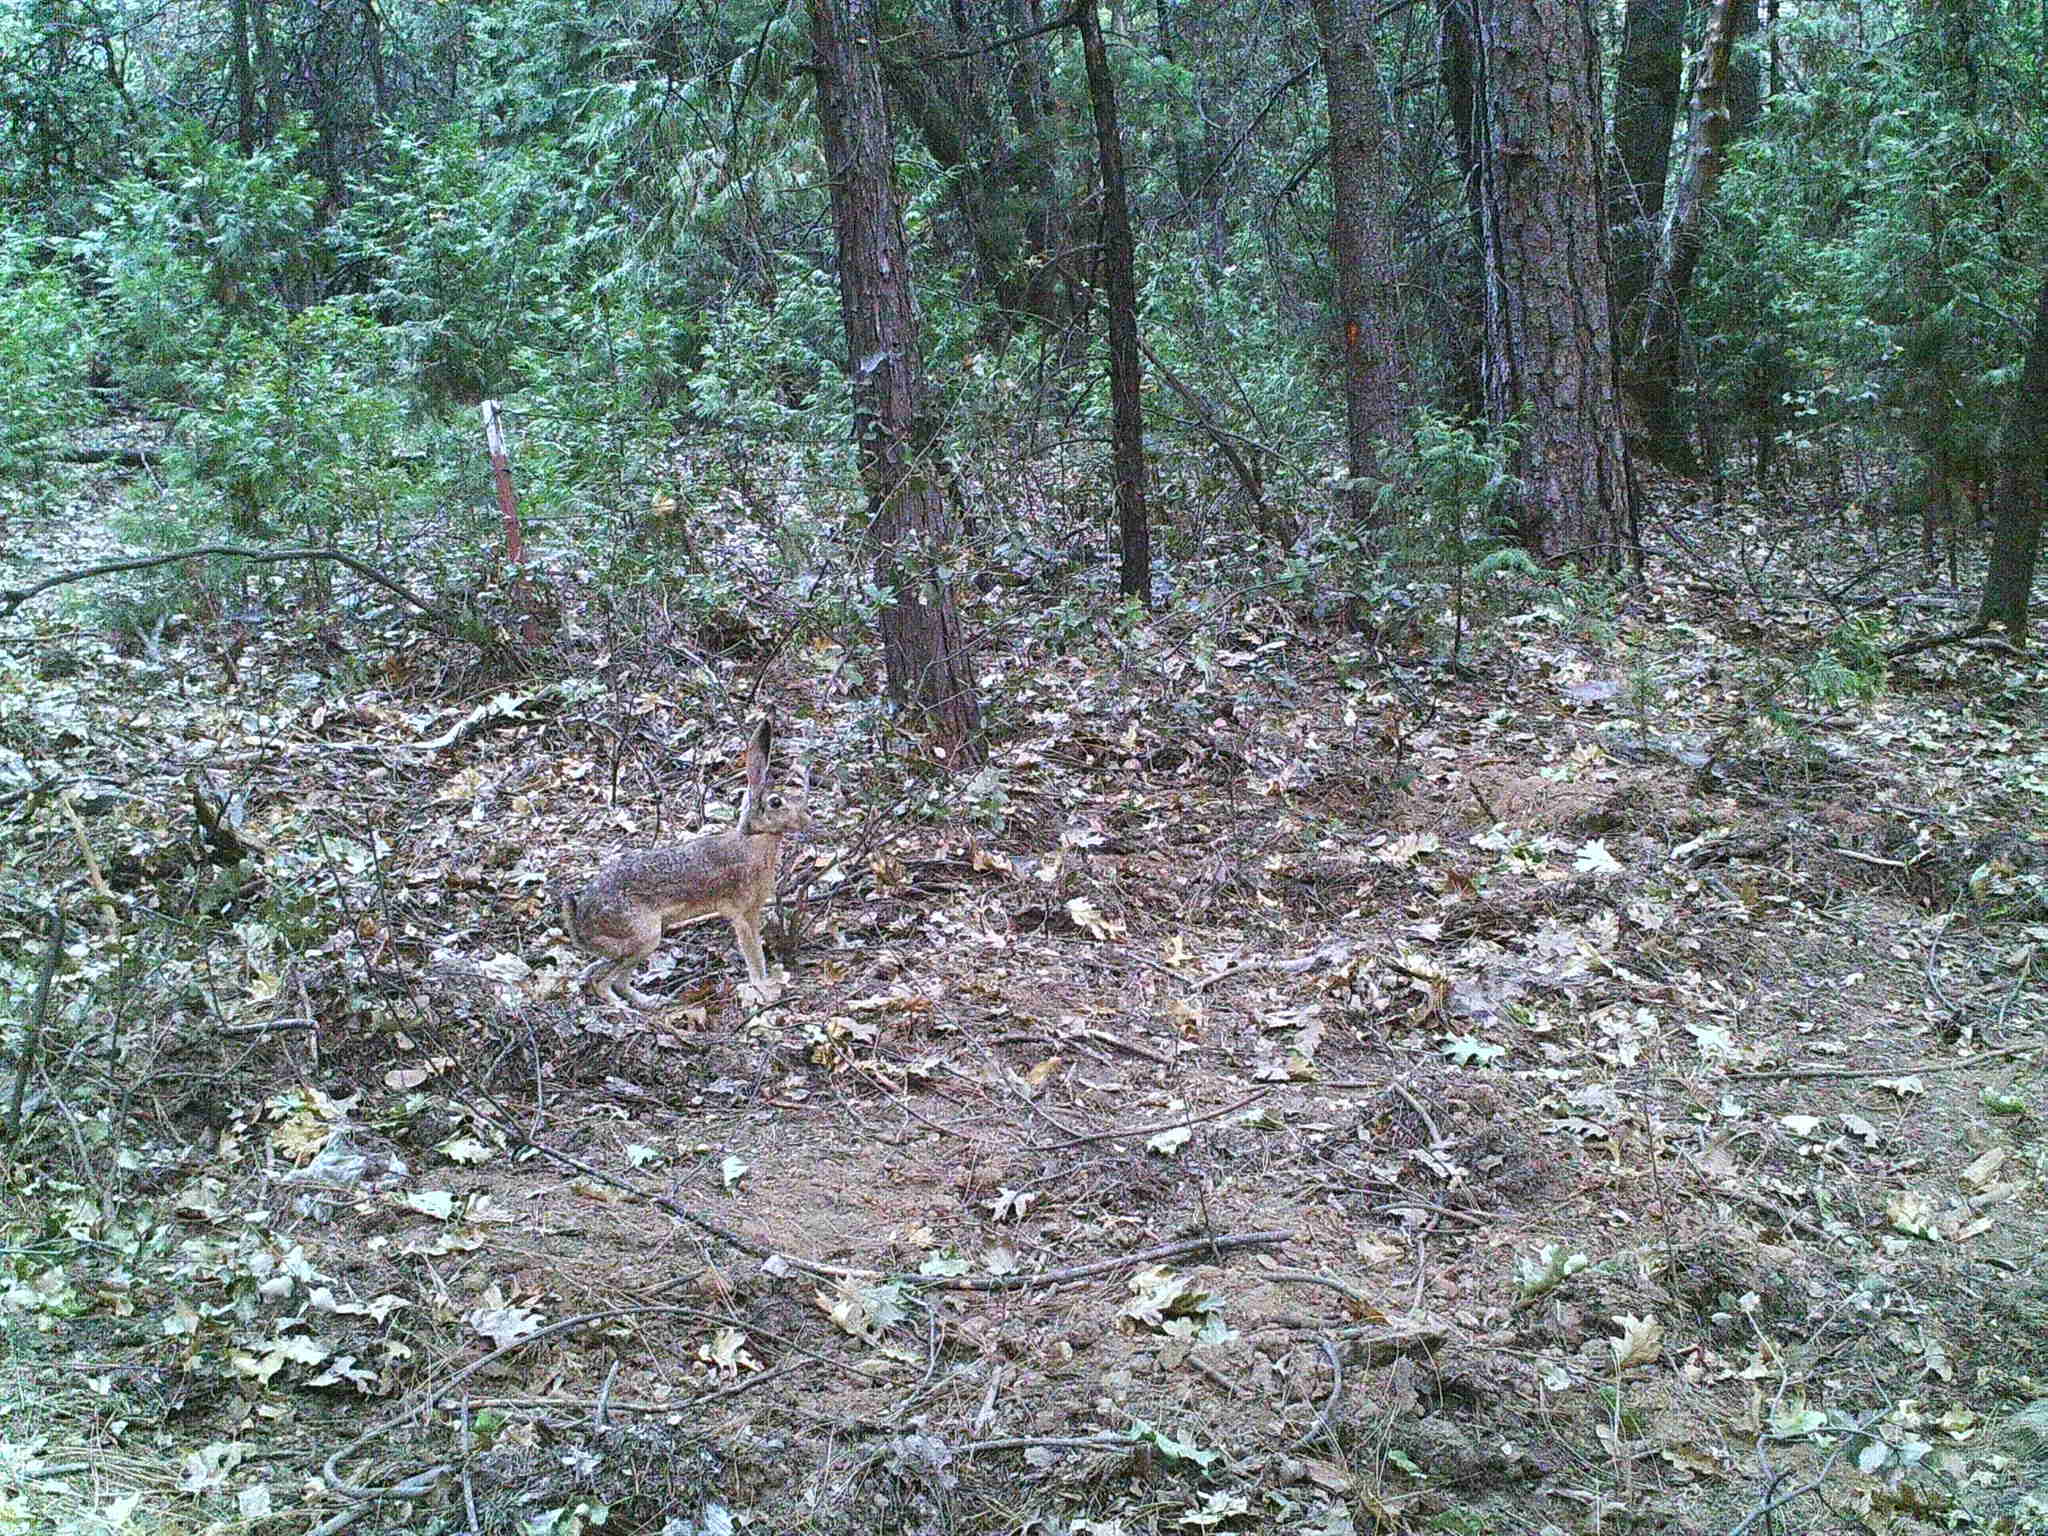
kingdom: Animalia
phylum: Chordata
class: Mammalia
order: Lagomorpha
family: Leporidae
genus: Lepus
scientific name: Lepus californicus
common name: Black-tailed jackrabbit
